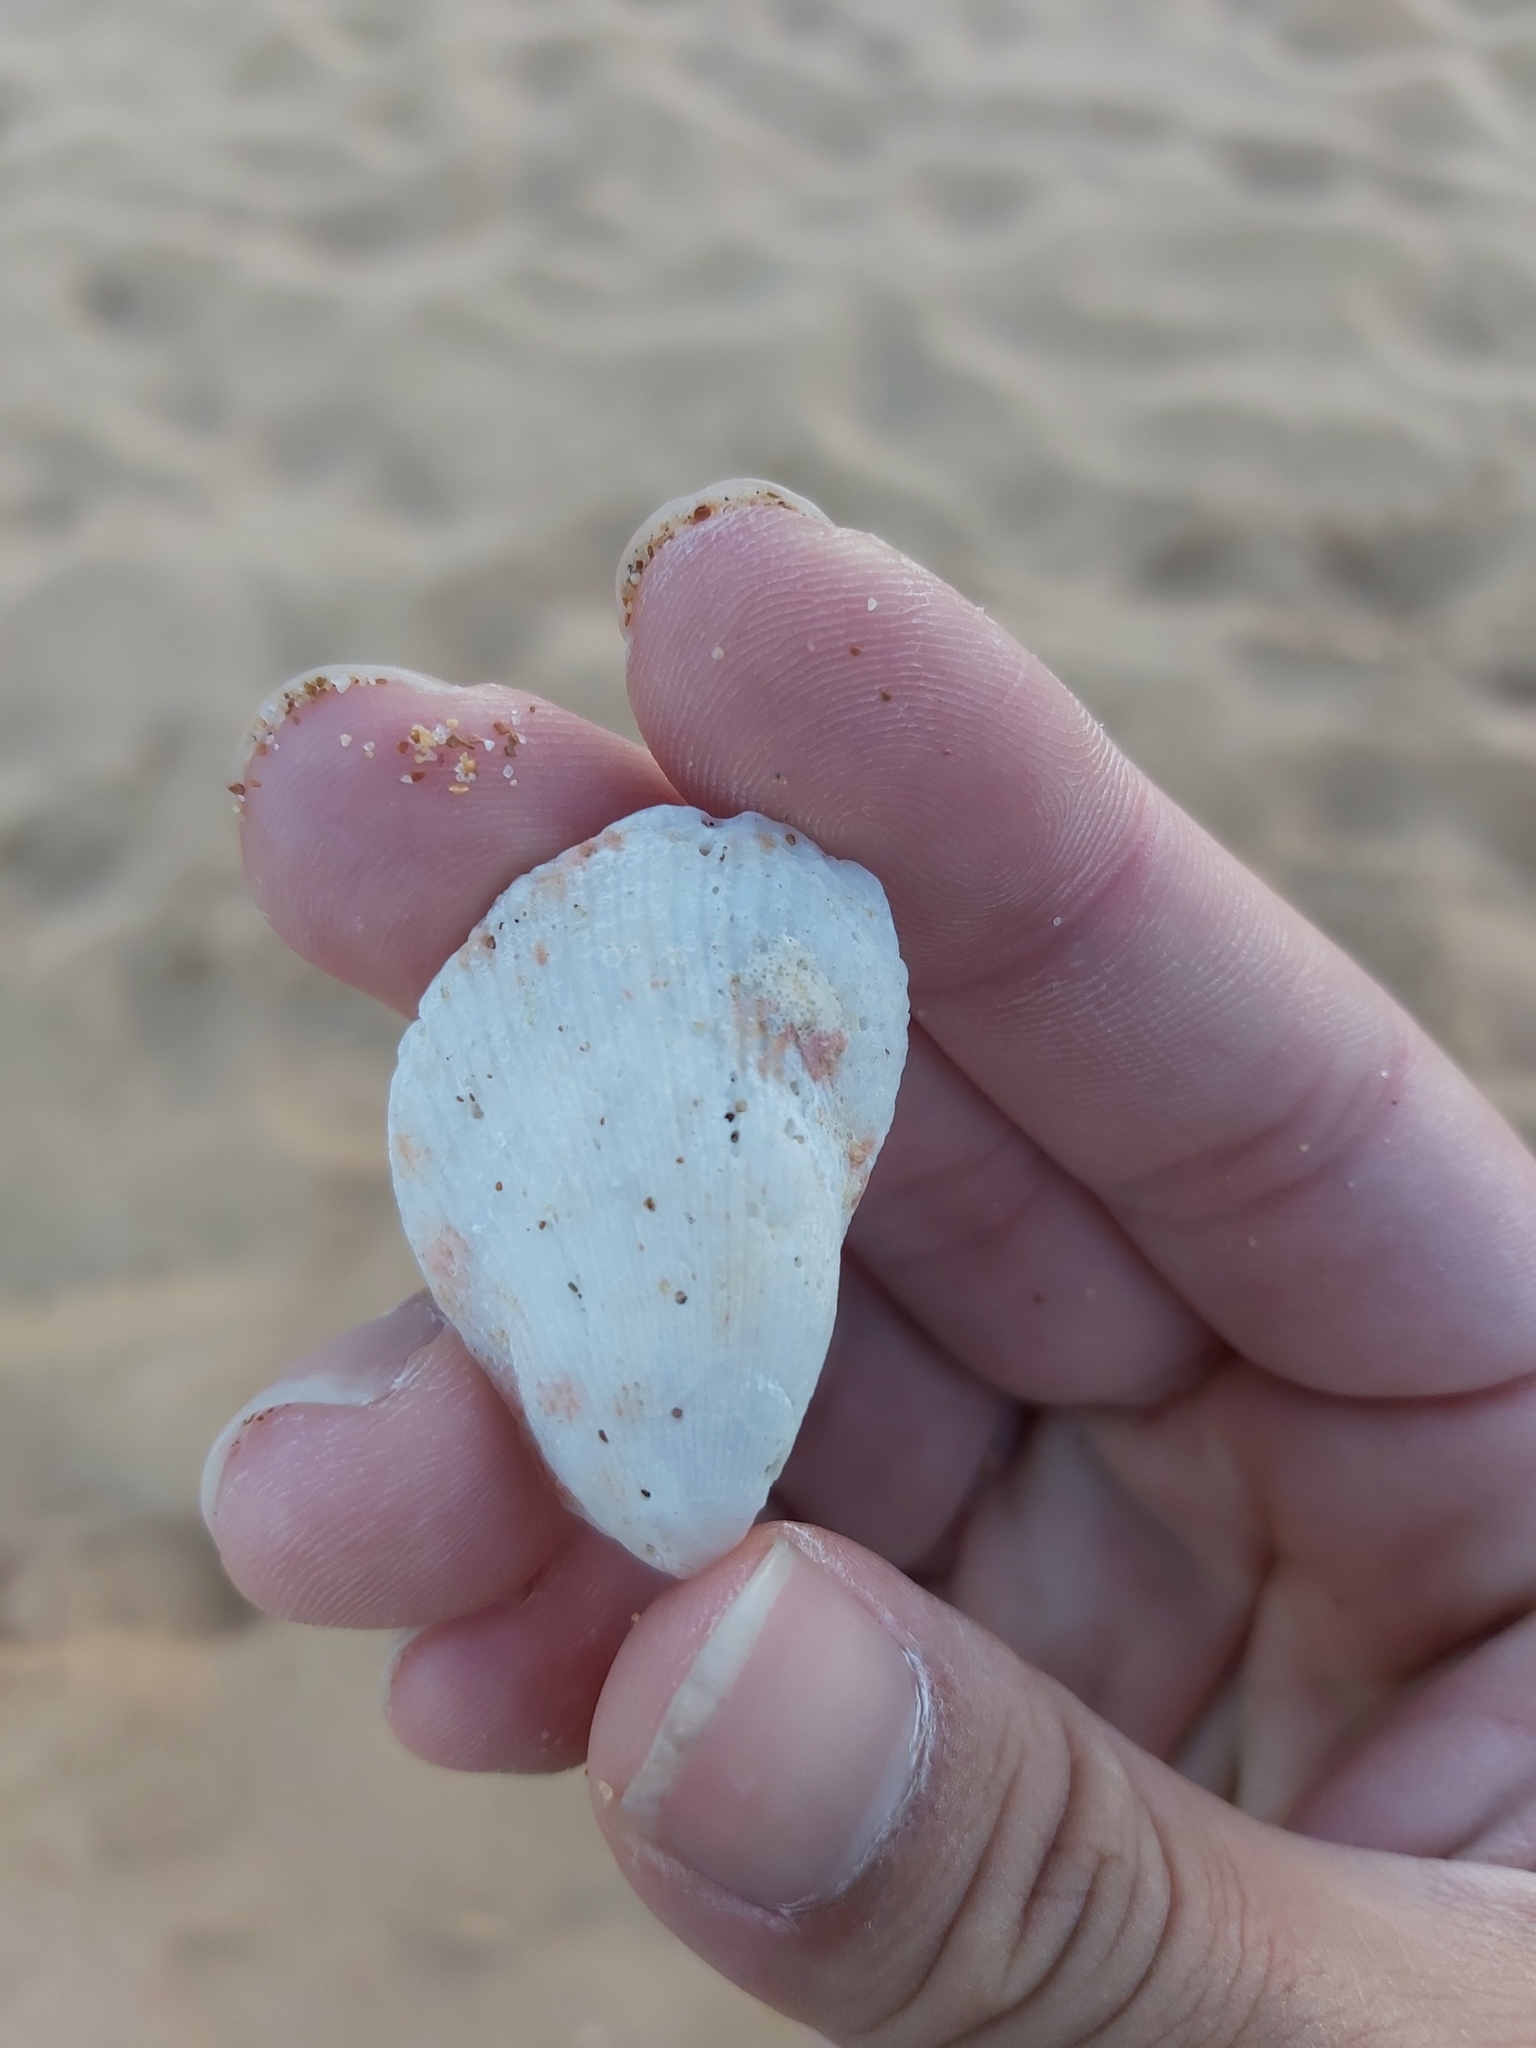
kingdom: Animalia
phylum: Mollusca
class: Bivalvia
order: Limida
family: Limidae
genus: Lima
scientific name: Lima nimbifer
